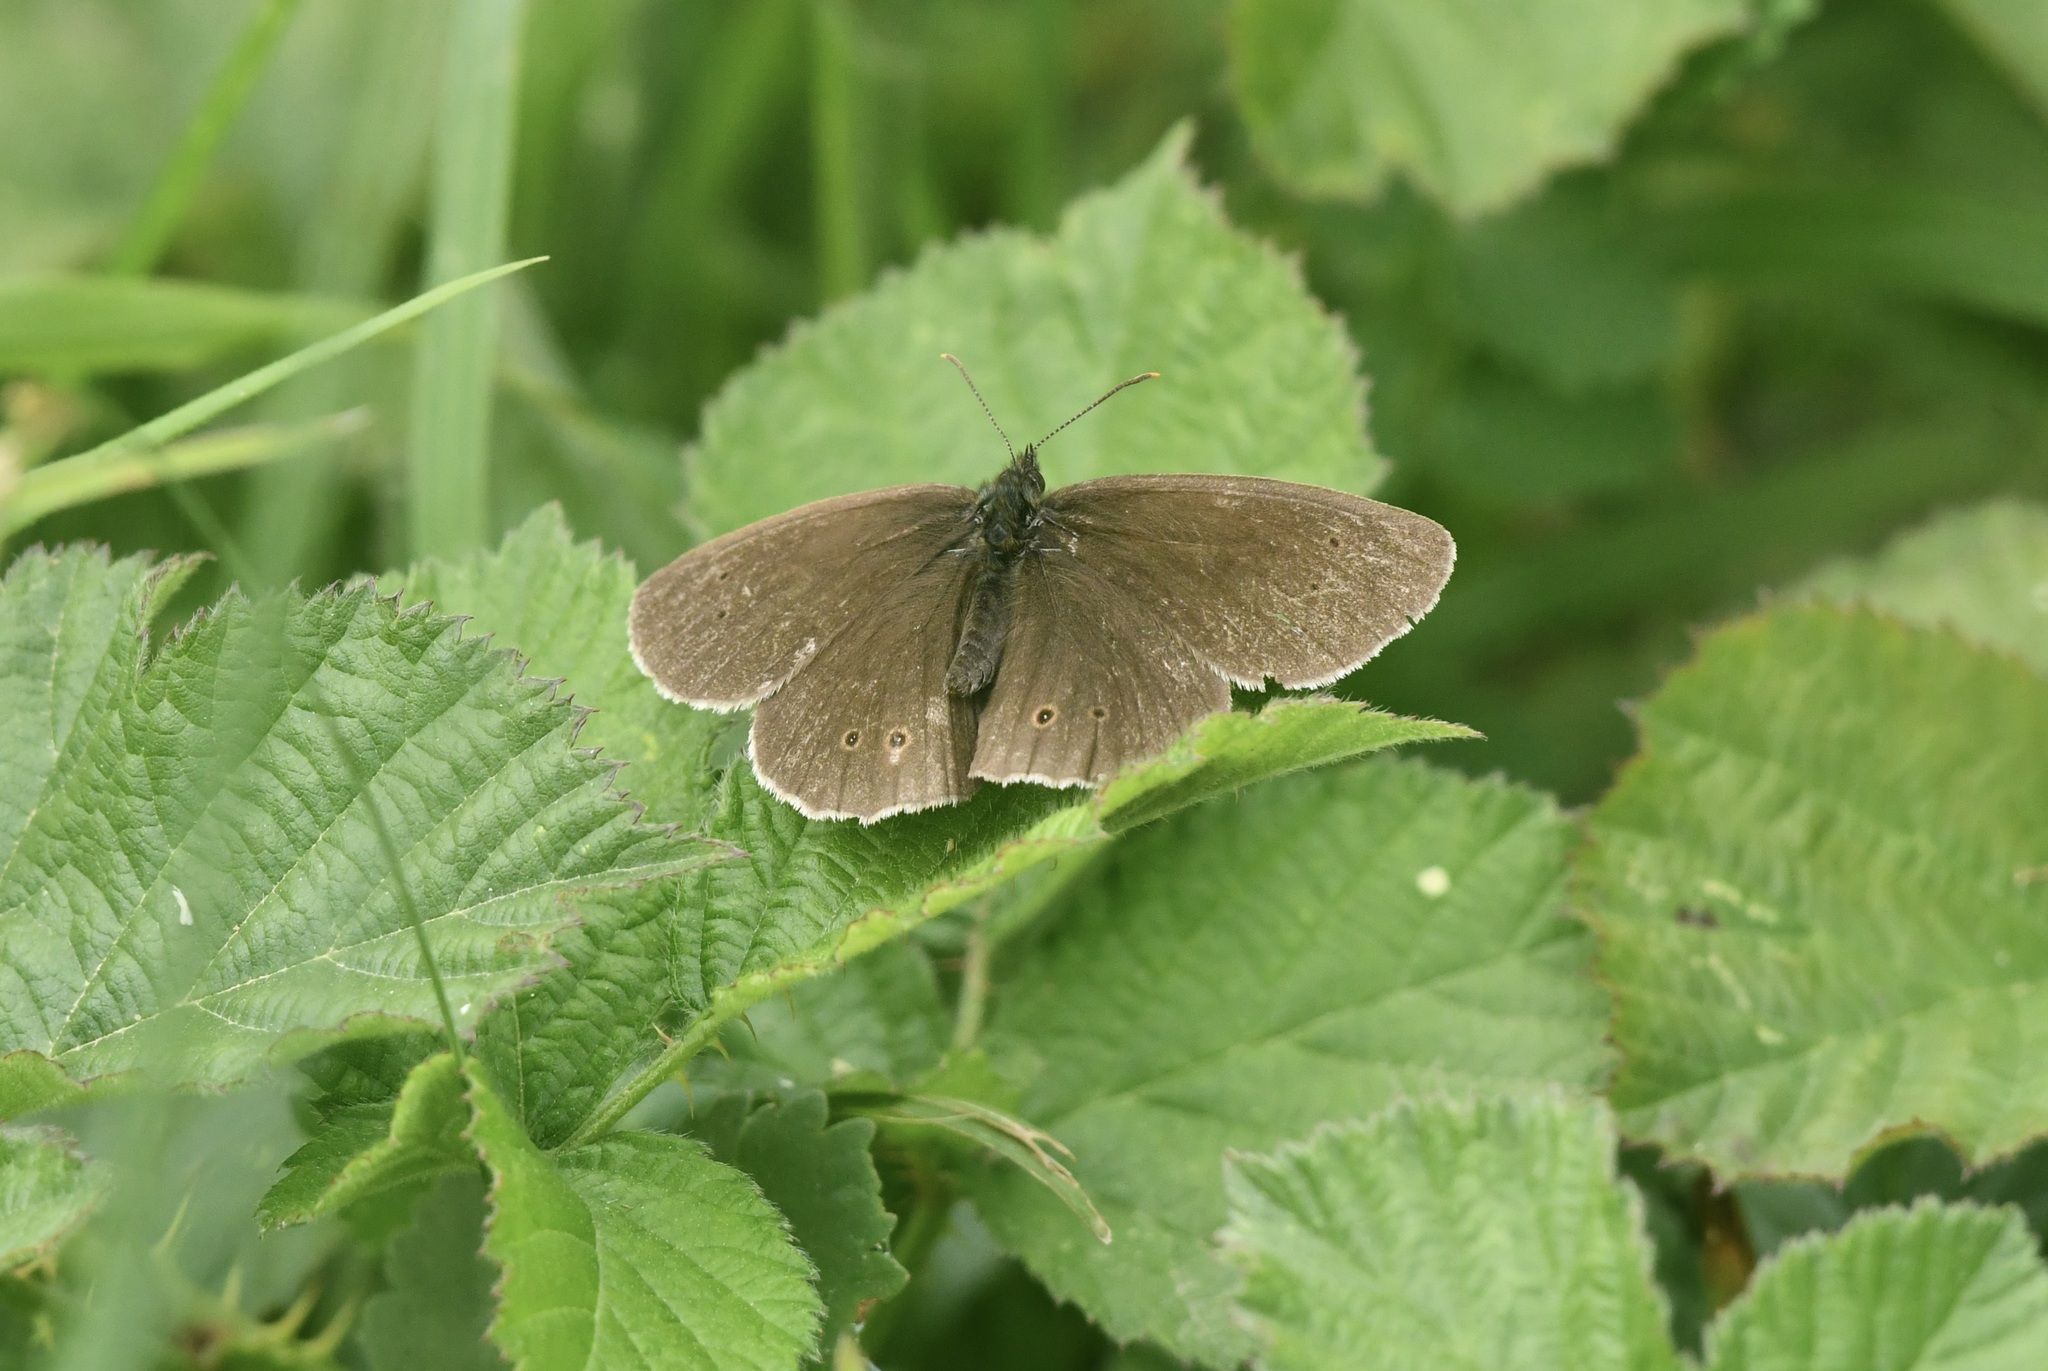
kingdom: Animalia
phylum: Arthropoda
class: Insecta
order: Lepidoptera
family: Nymphalidae
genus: Aphantopus
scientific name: Aphantopus hyperantus
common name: Ringlet
